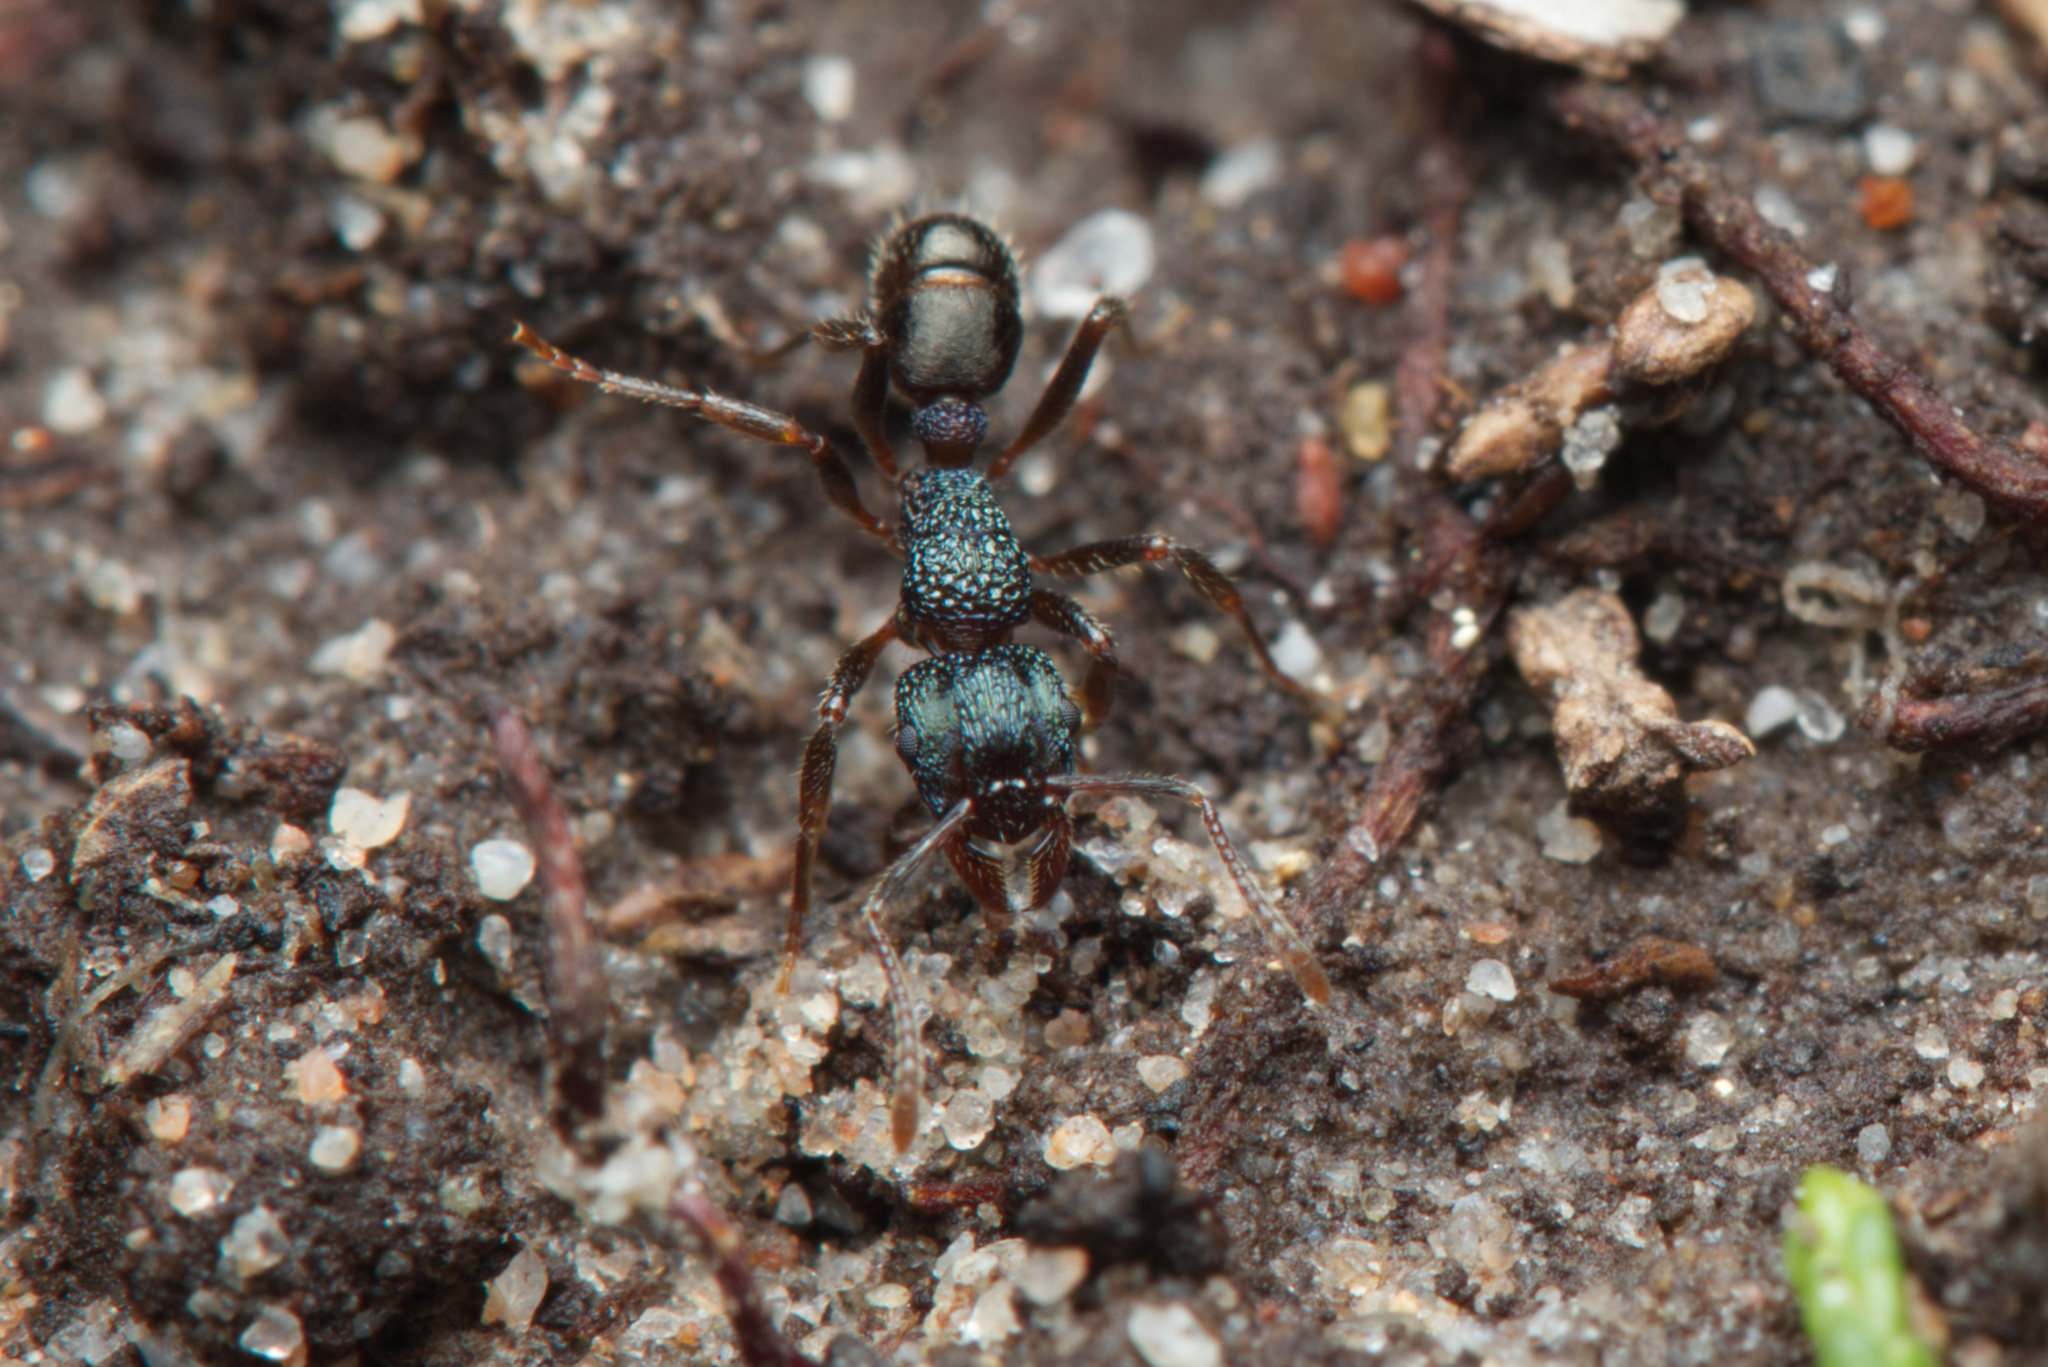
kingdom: Animalia
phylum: Arthropoda
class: Insecta
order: Hymenoptera
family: Formicidae
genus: Rhytidoponera
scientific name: Rhytidoponera victoriae
